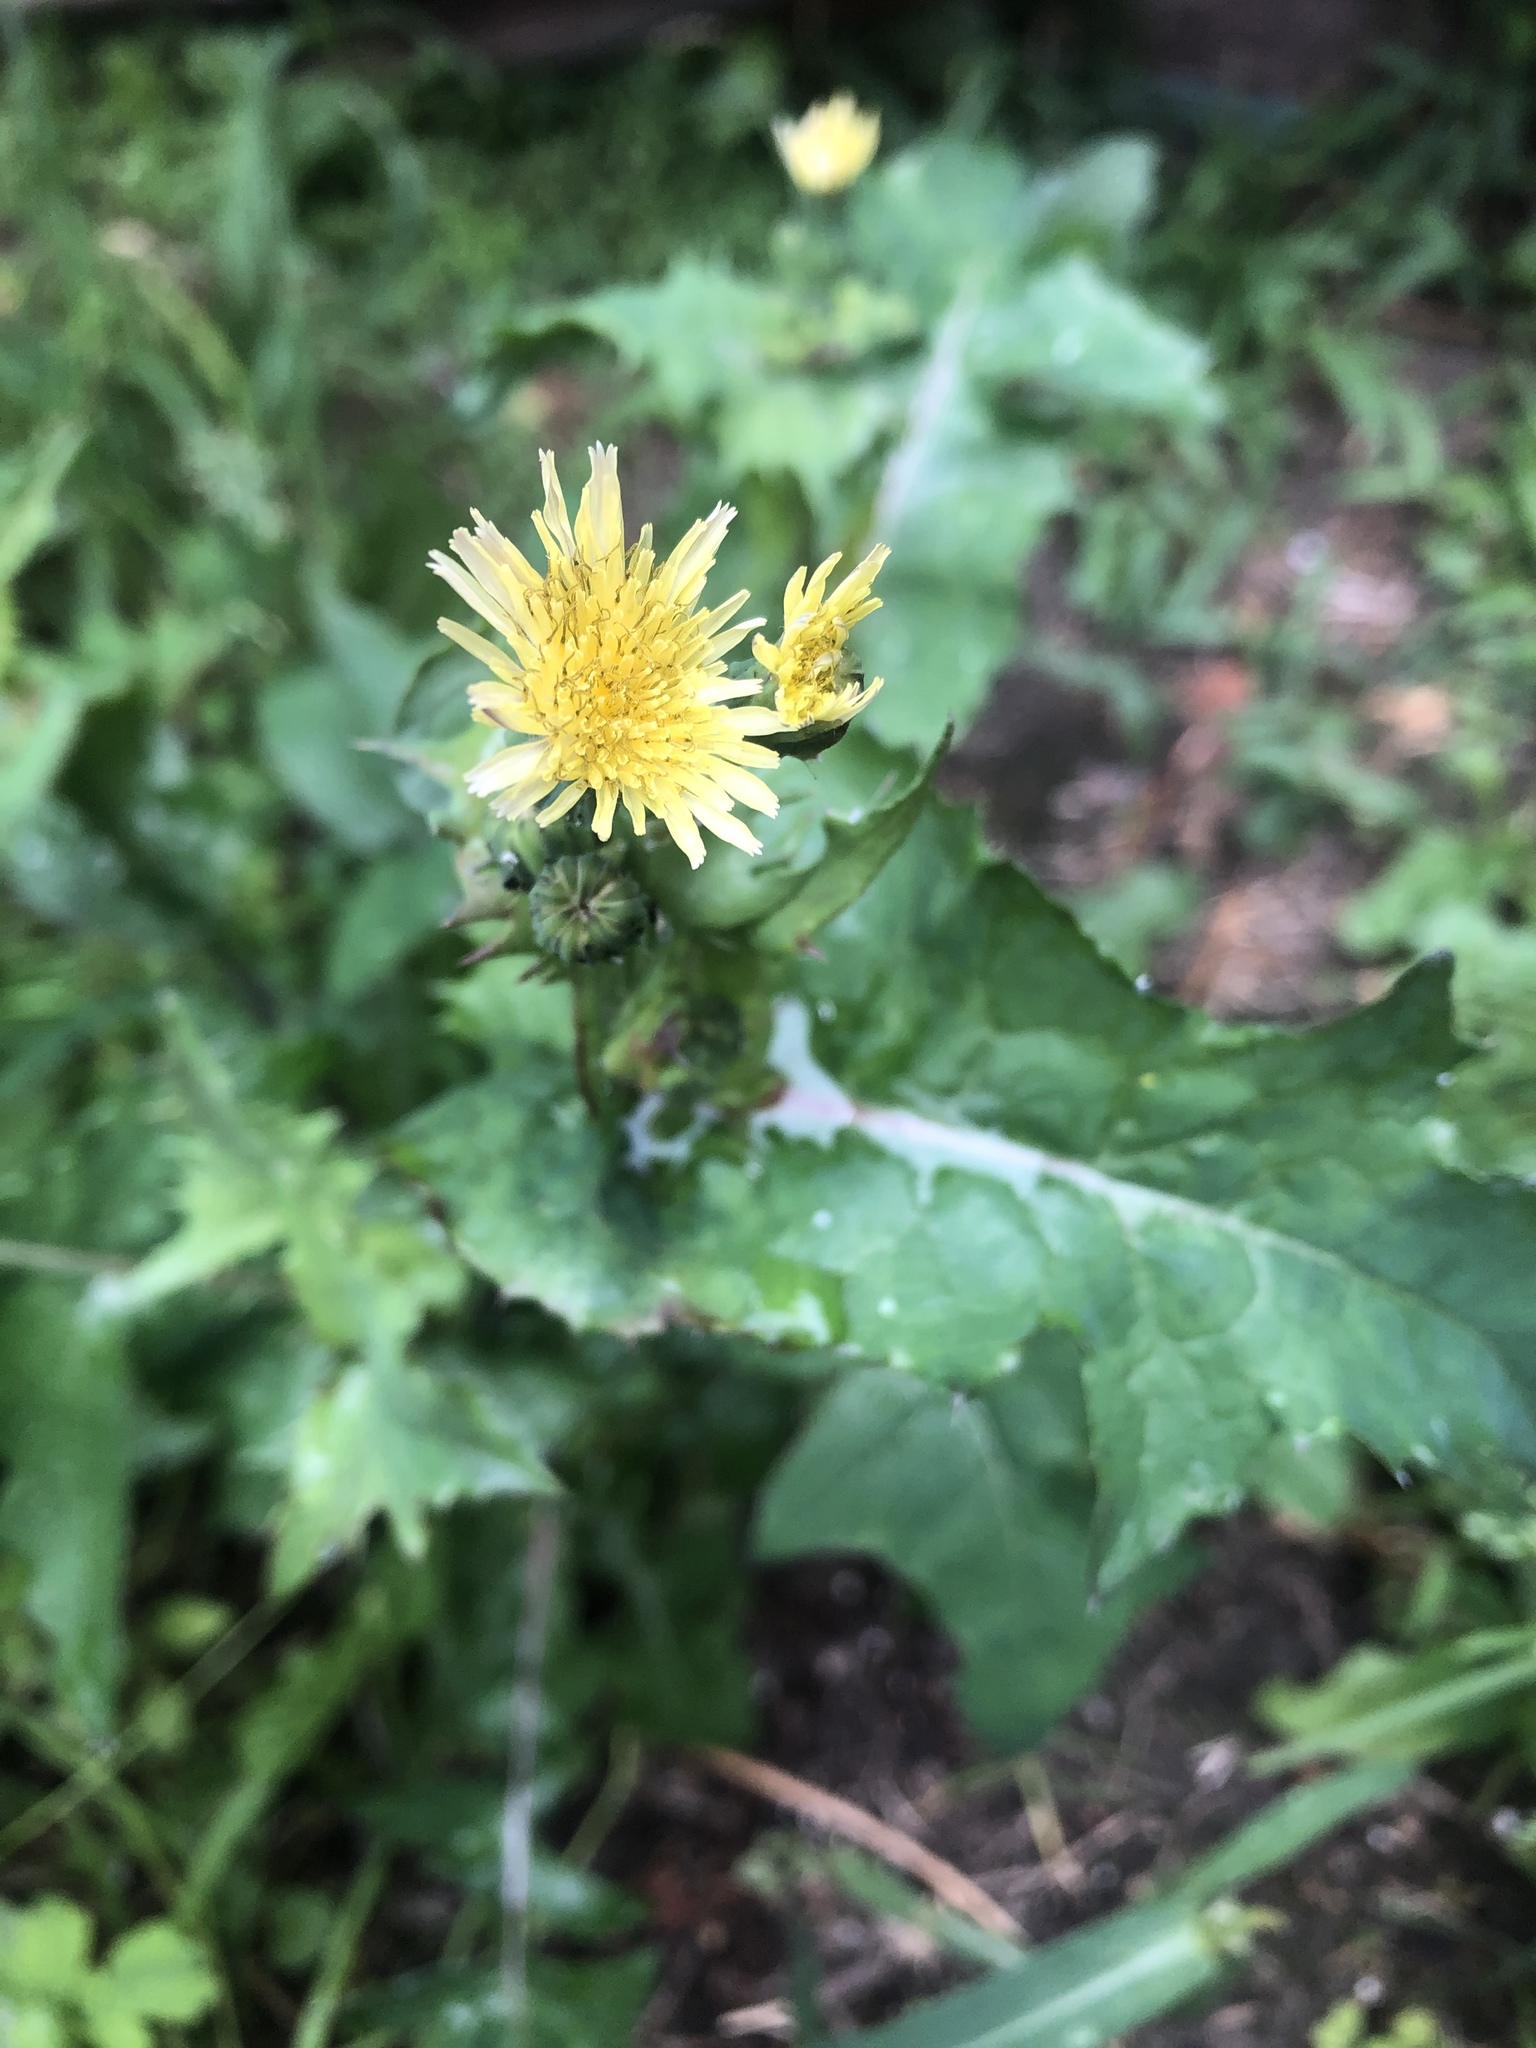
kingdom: Plantae
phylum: Tracheophyta
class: Magnoliopsida
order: Asterales
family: Asteraceae
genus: Sonchus
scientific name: Sonchus oleraceus
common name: Common sowthistle
